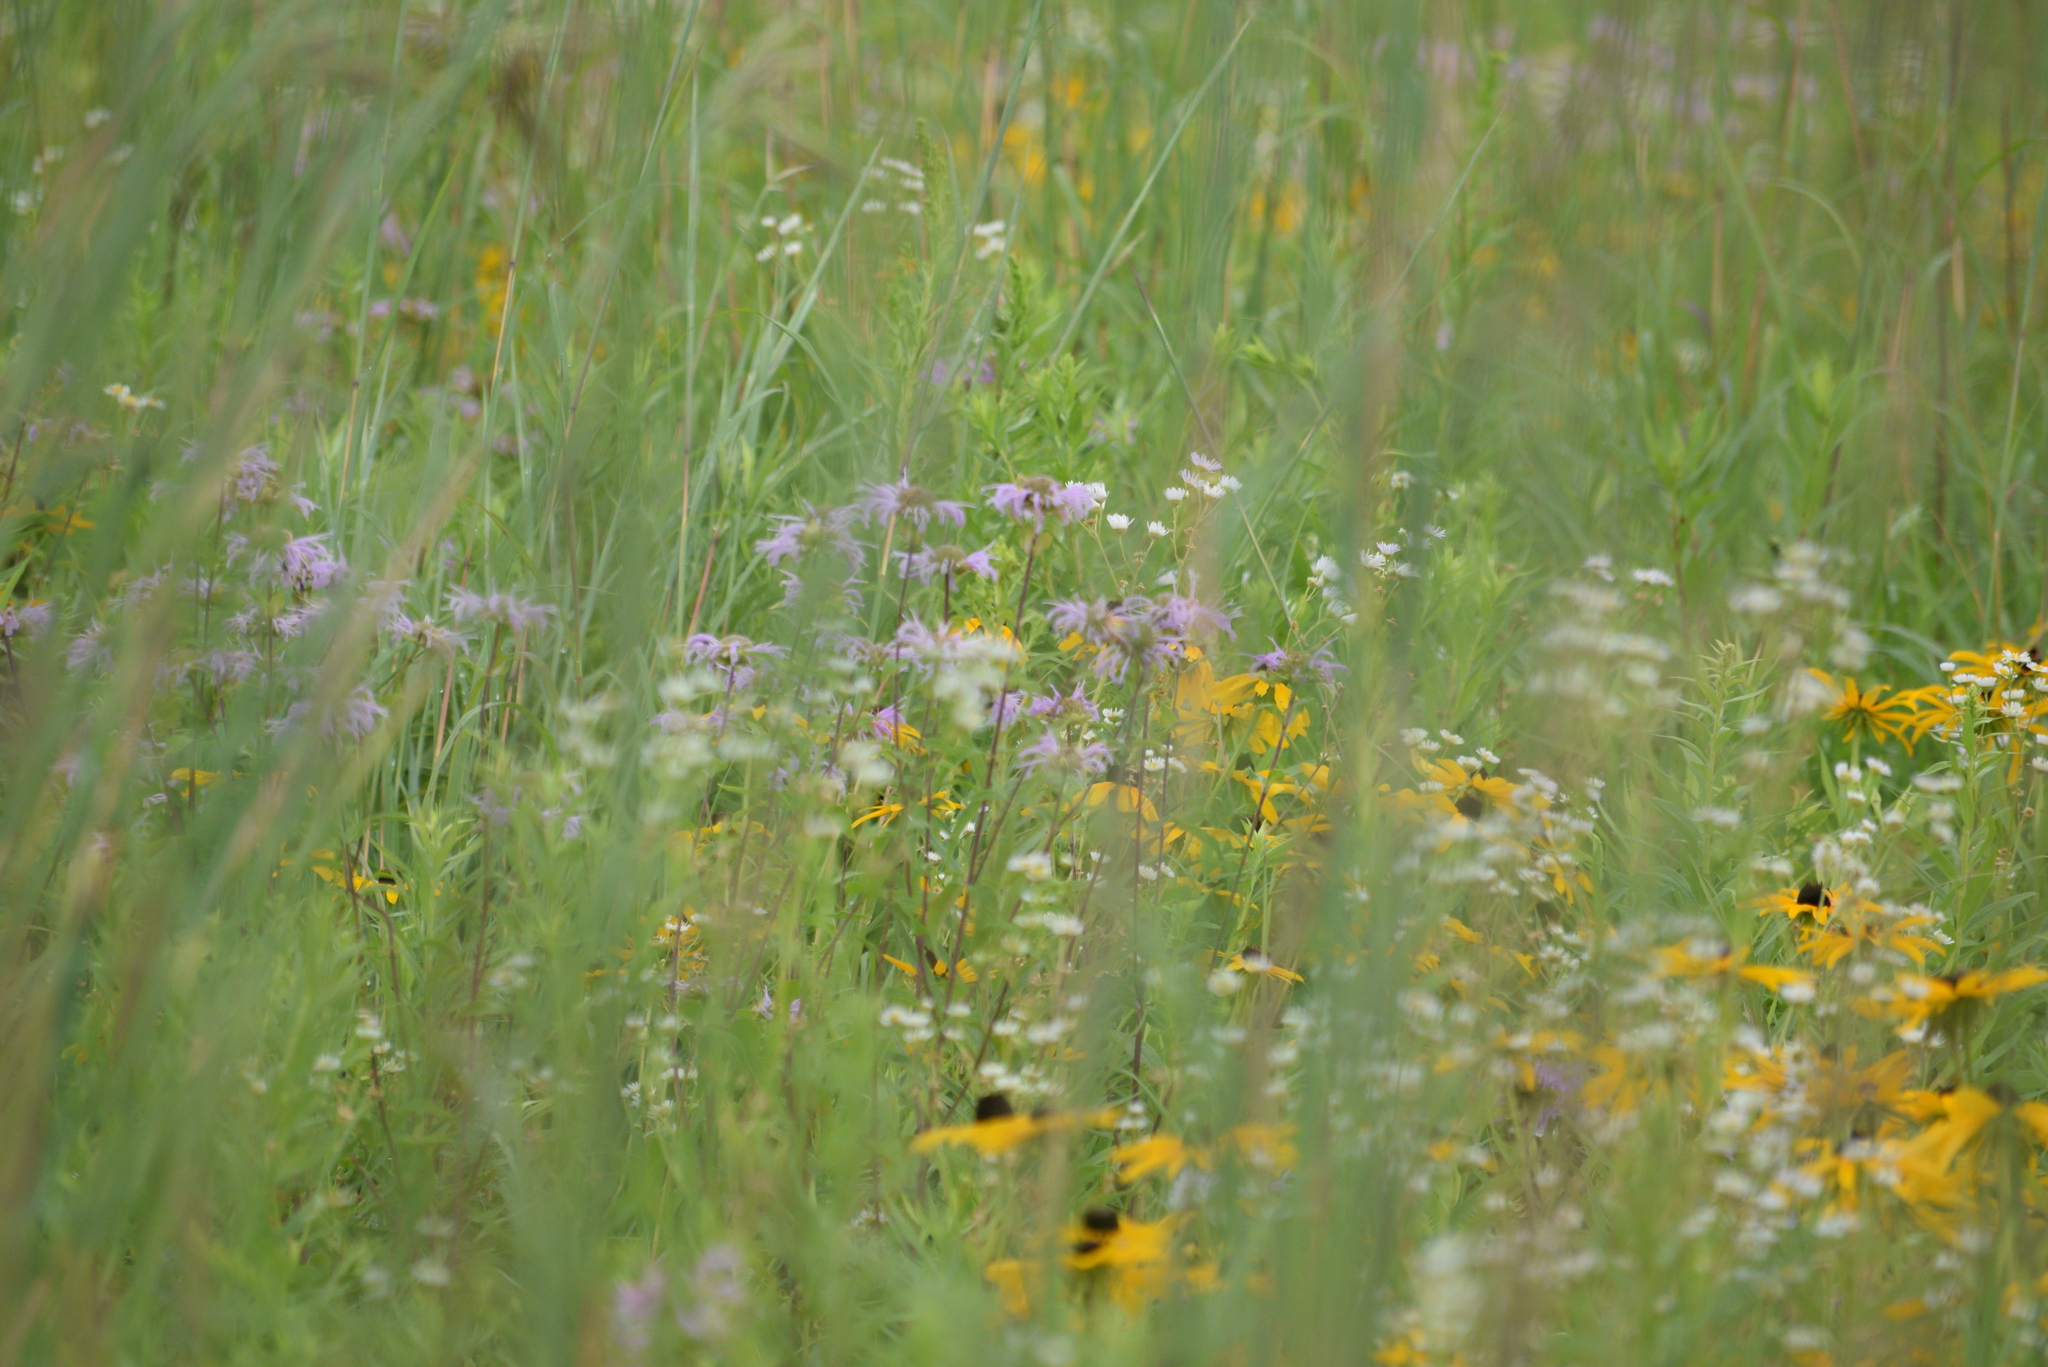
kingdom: Plantae
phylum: Tracheophyta
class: Magnoliopsida
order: Lamiales
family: Lamiaceae
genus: Monarda
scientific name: Monarda fistulosa
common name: Purple beebalm
